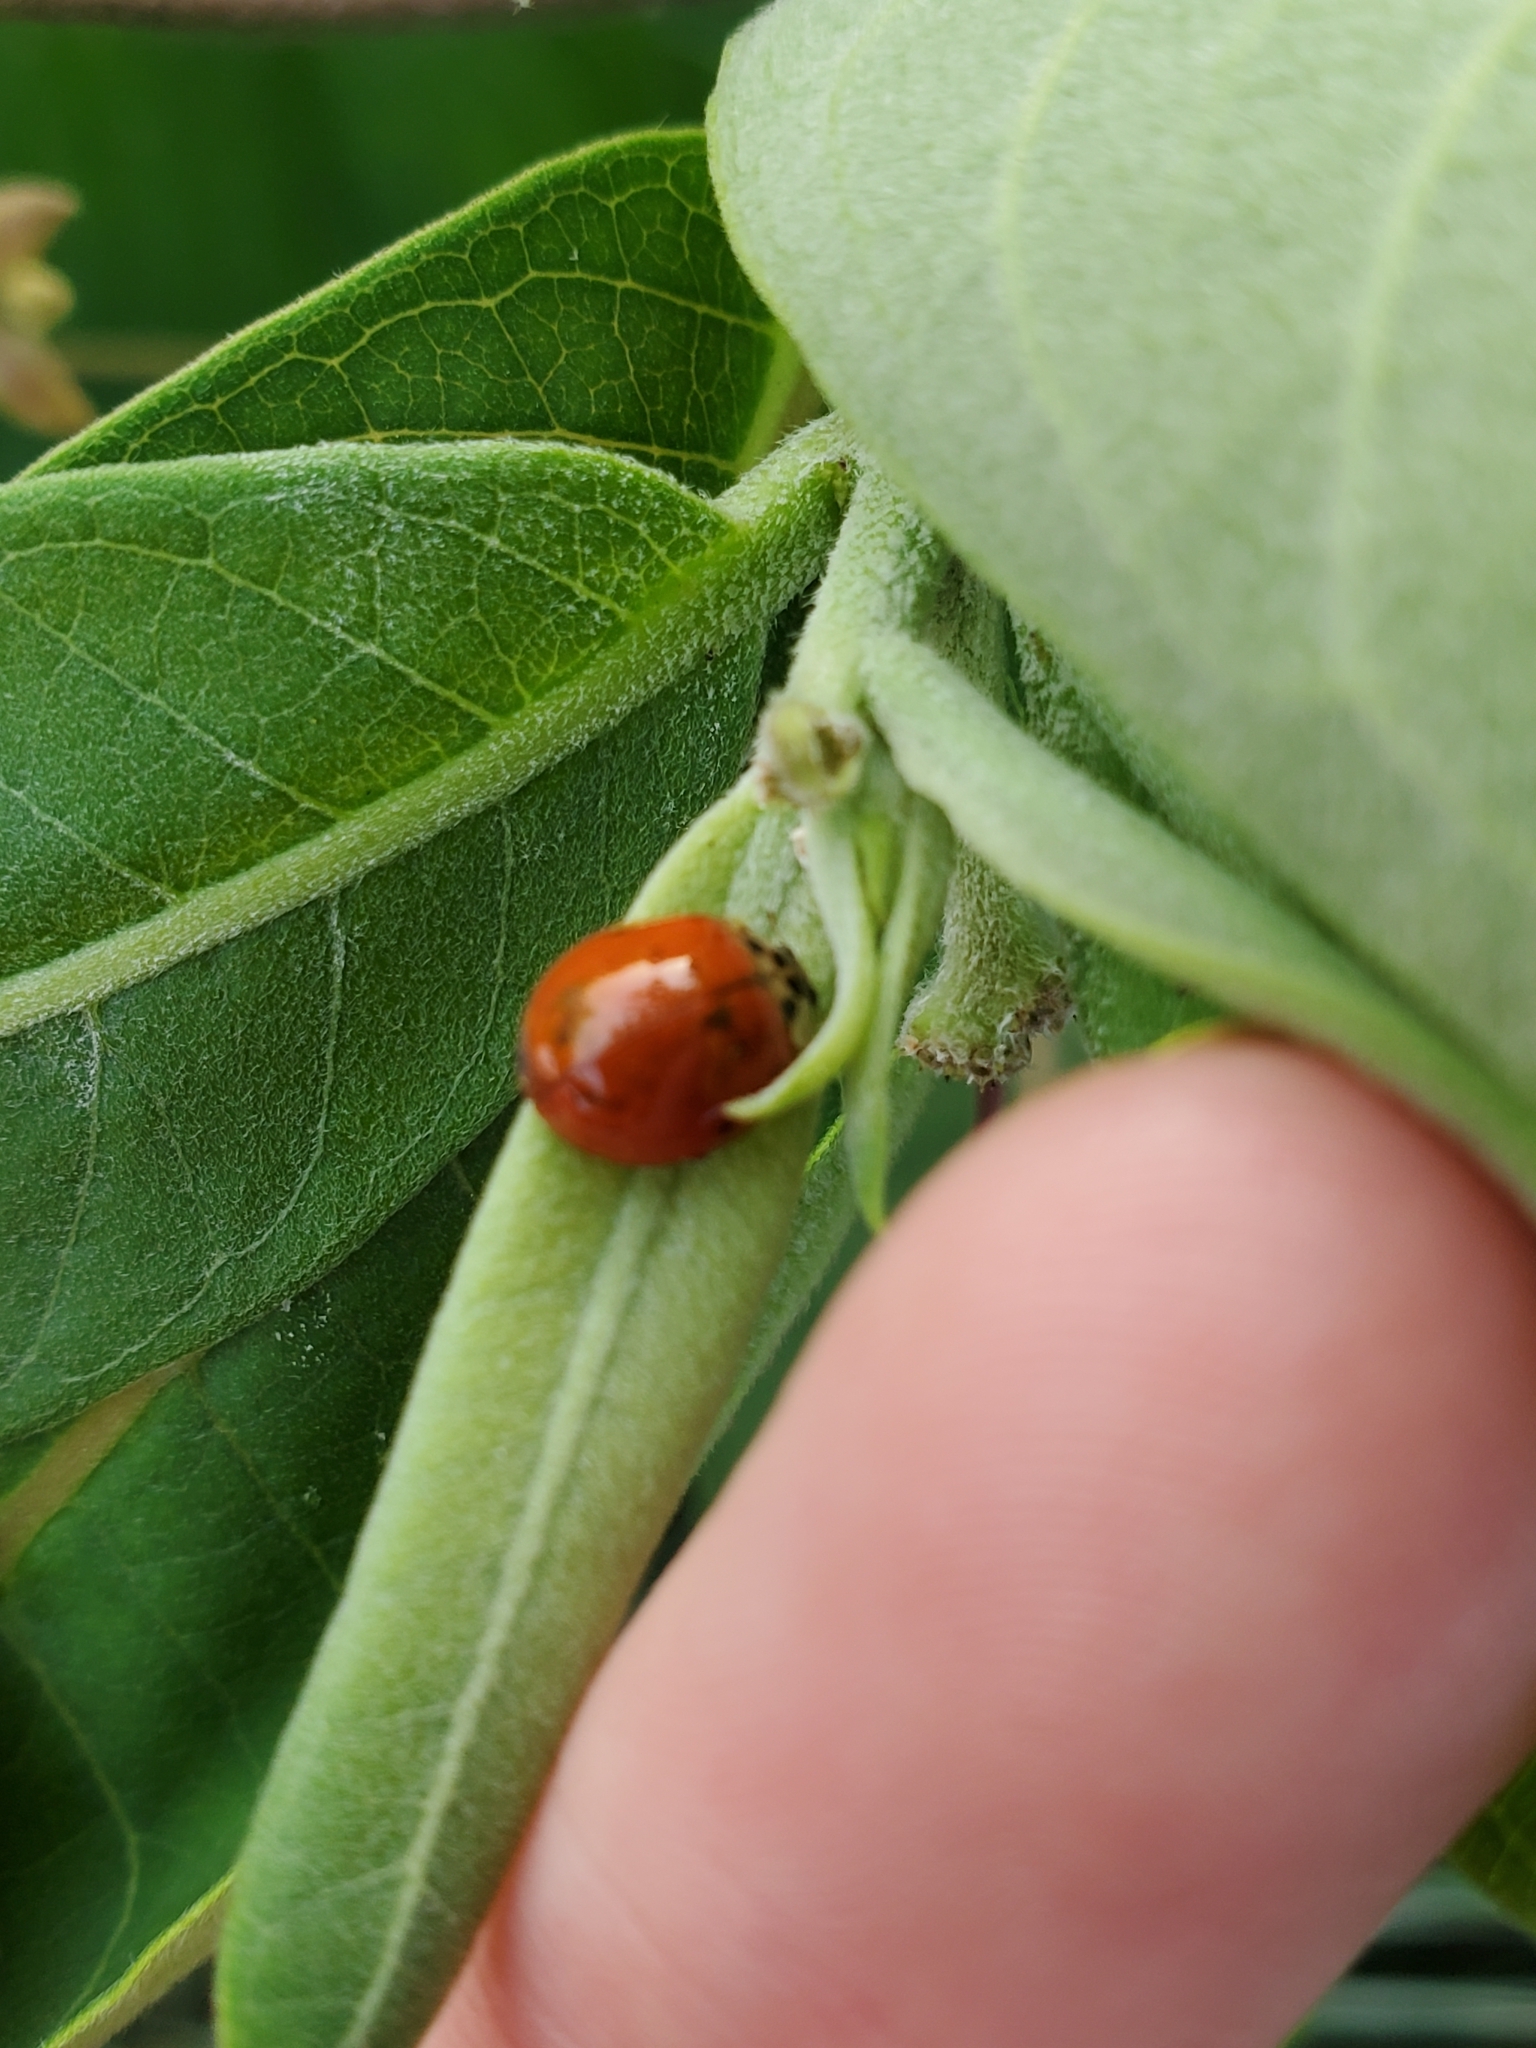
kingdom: Animalia
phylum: Arthropoda
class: Insecta
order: Coleoptera
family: Coccinellidae
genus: Harmonia
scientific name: Harmonia axyridis
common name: Harlequin ladybird
